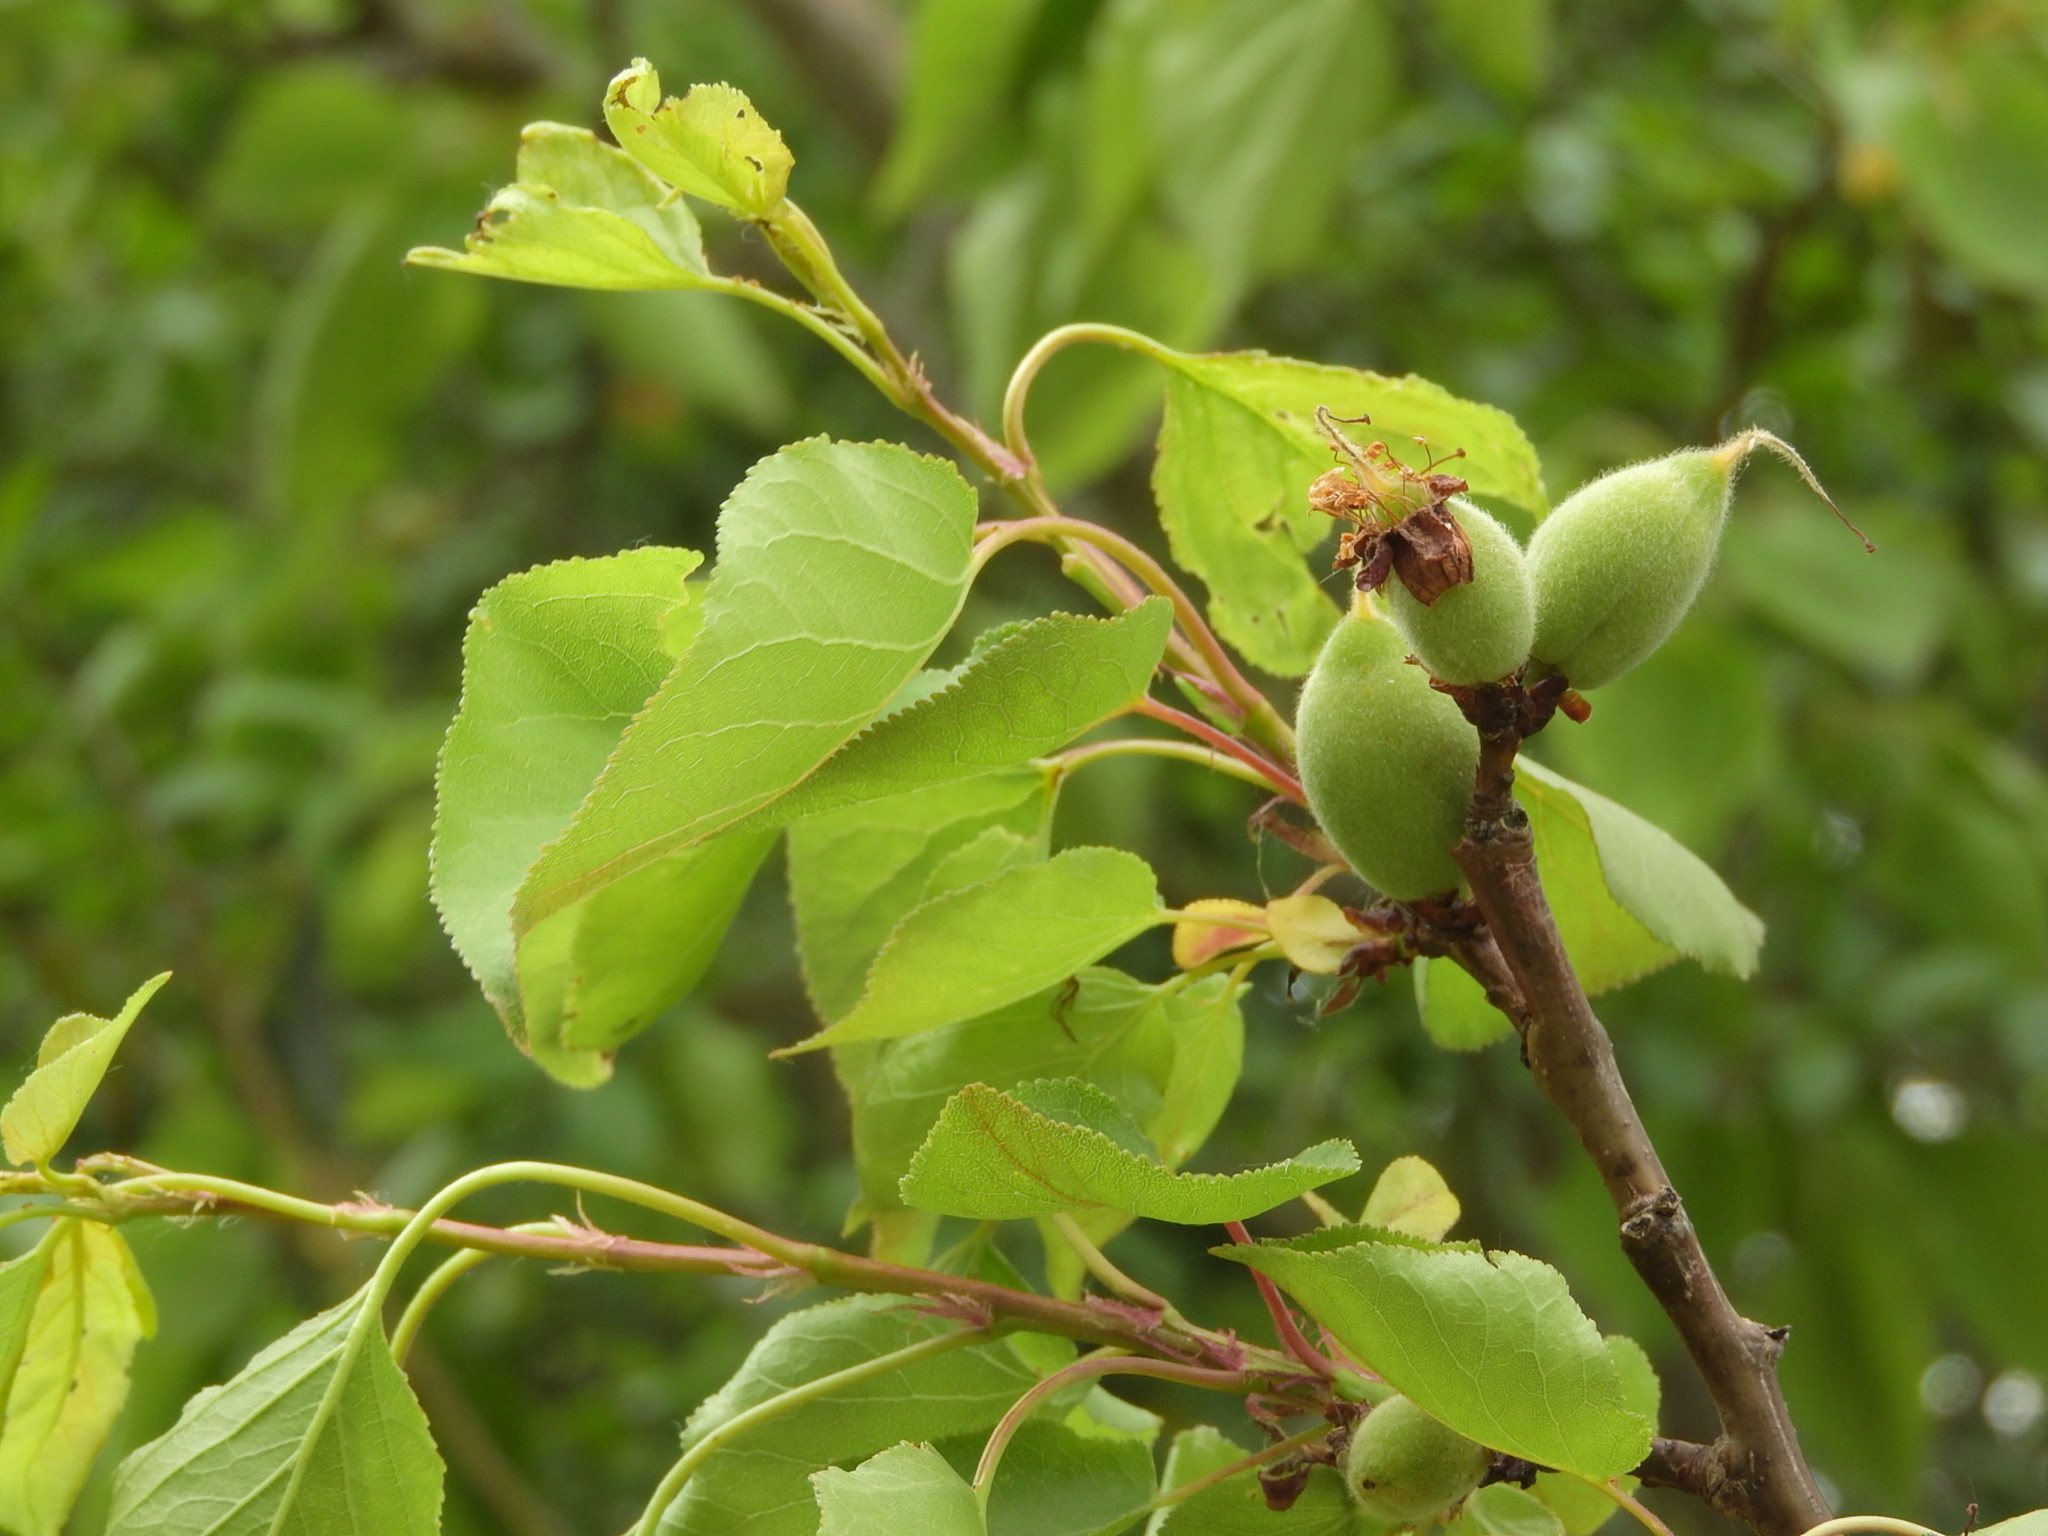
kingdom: Plantae
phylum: Tracheophyta
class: Magnoliopsida
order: Rosales
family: Rosaceae
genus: Prunus
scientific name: Prunus armeniaca
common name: Apricot
